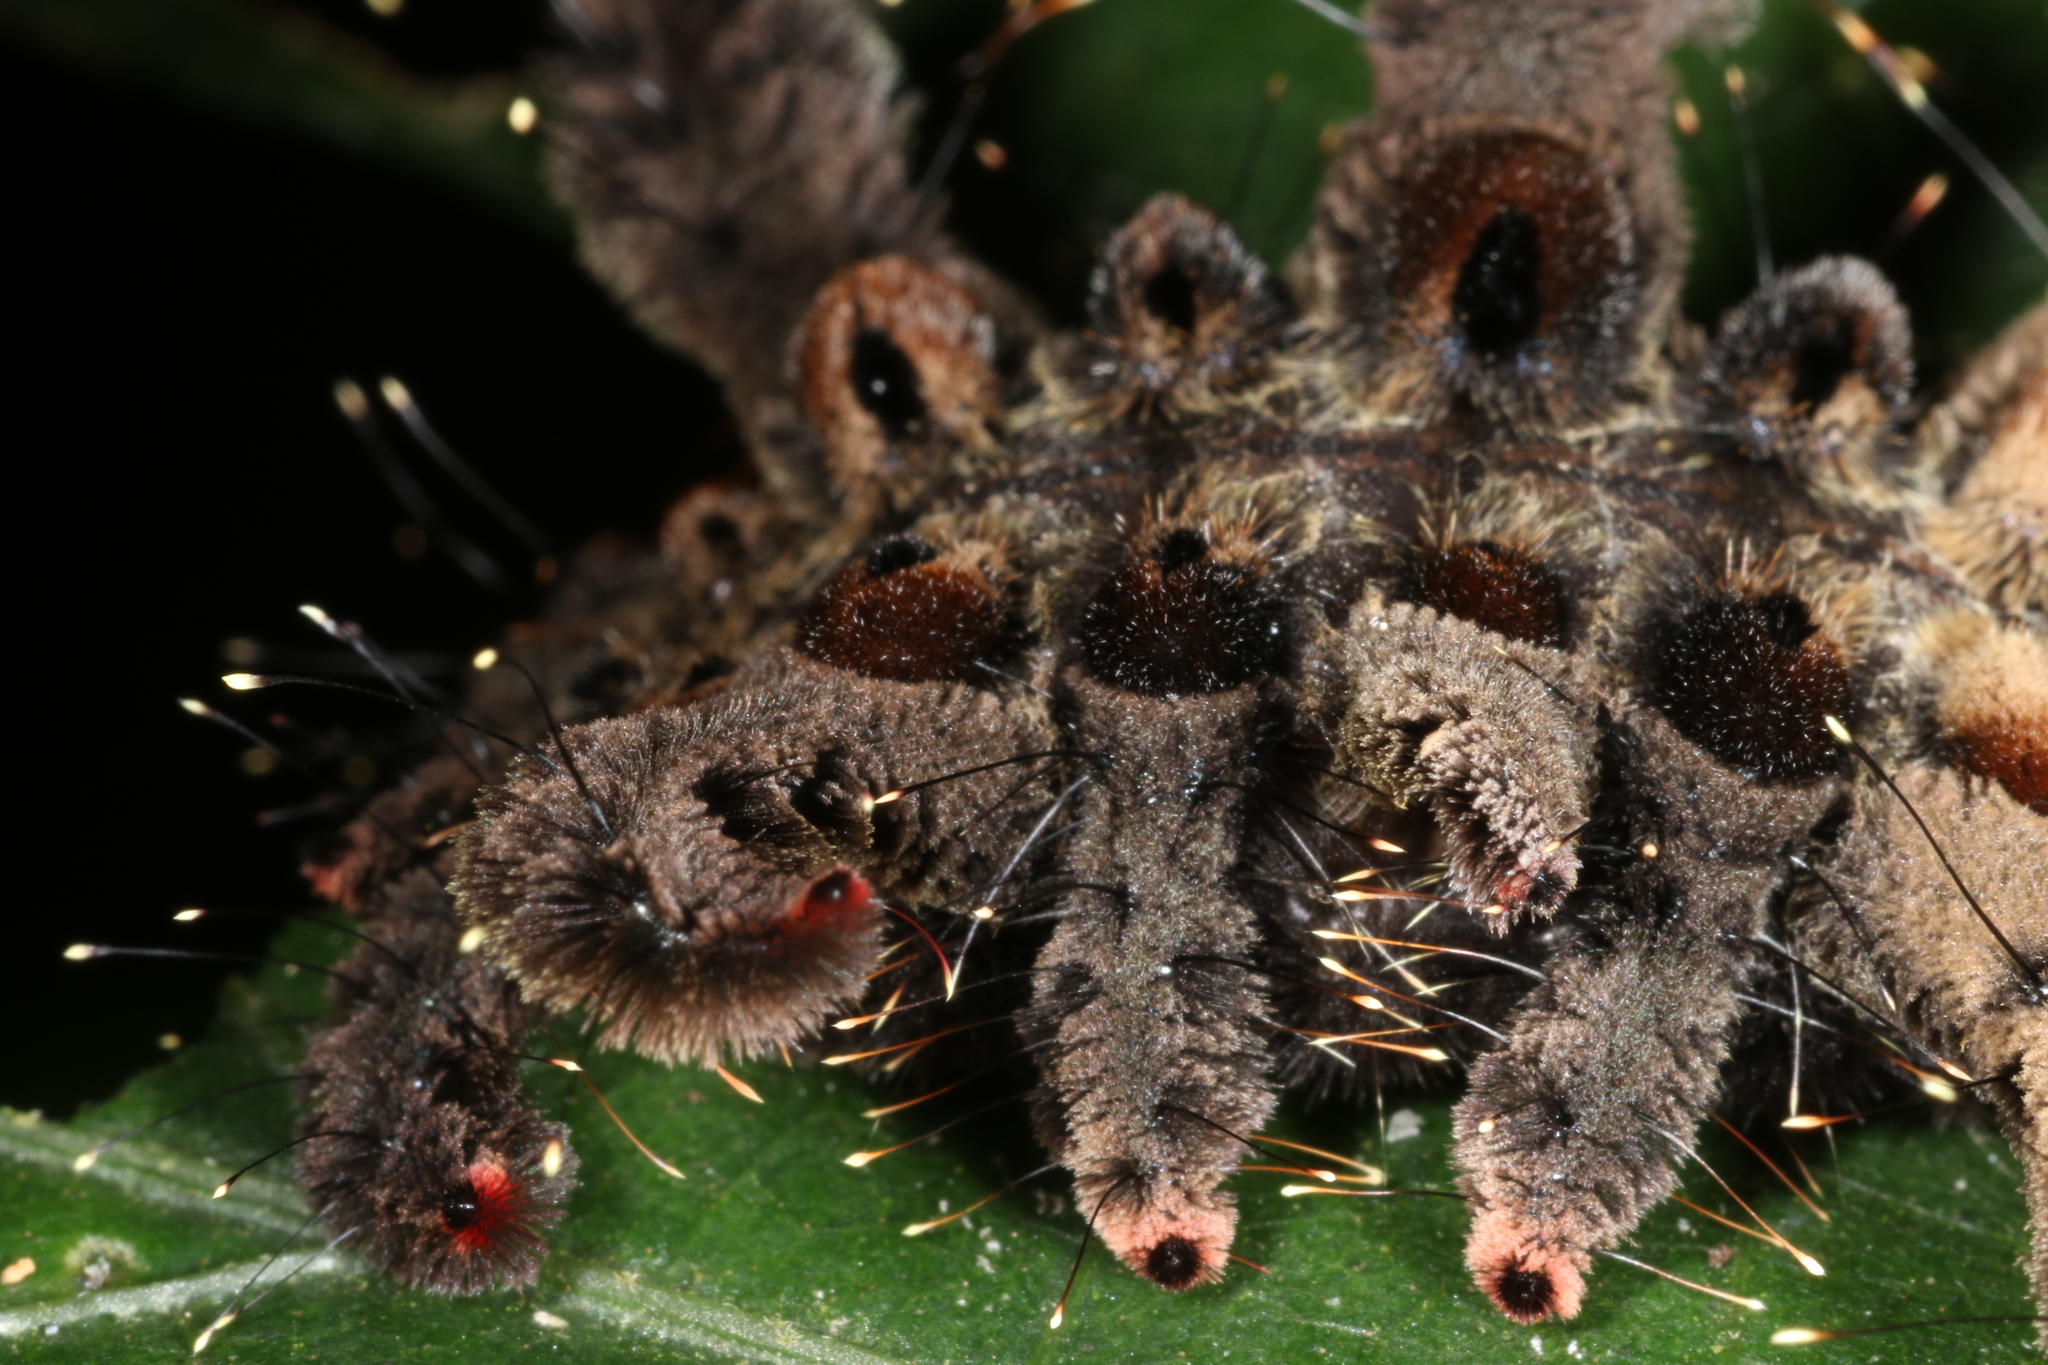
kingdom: Animalia
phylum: Arthropoda
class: Insecta
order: Lepidoptera
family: Limacodidae
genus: Phobetron
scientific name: Phobetron hipparchia
